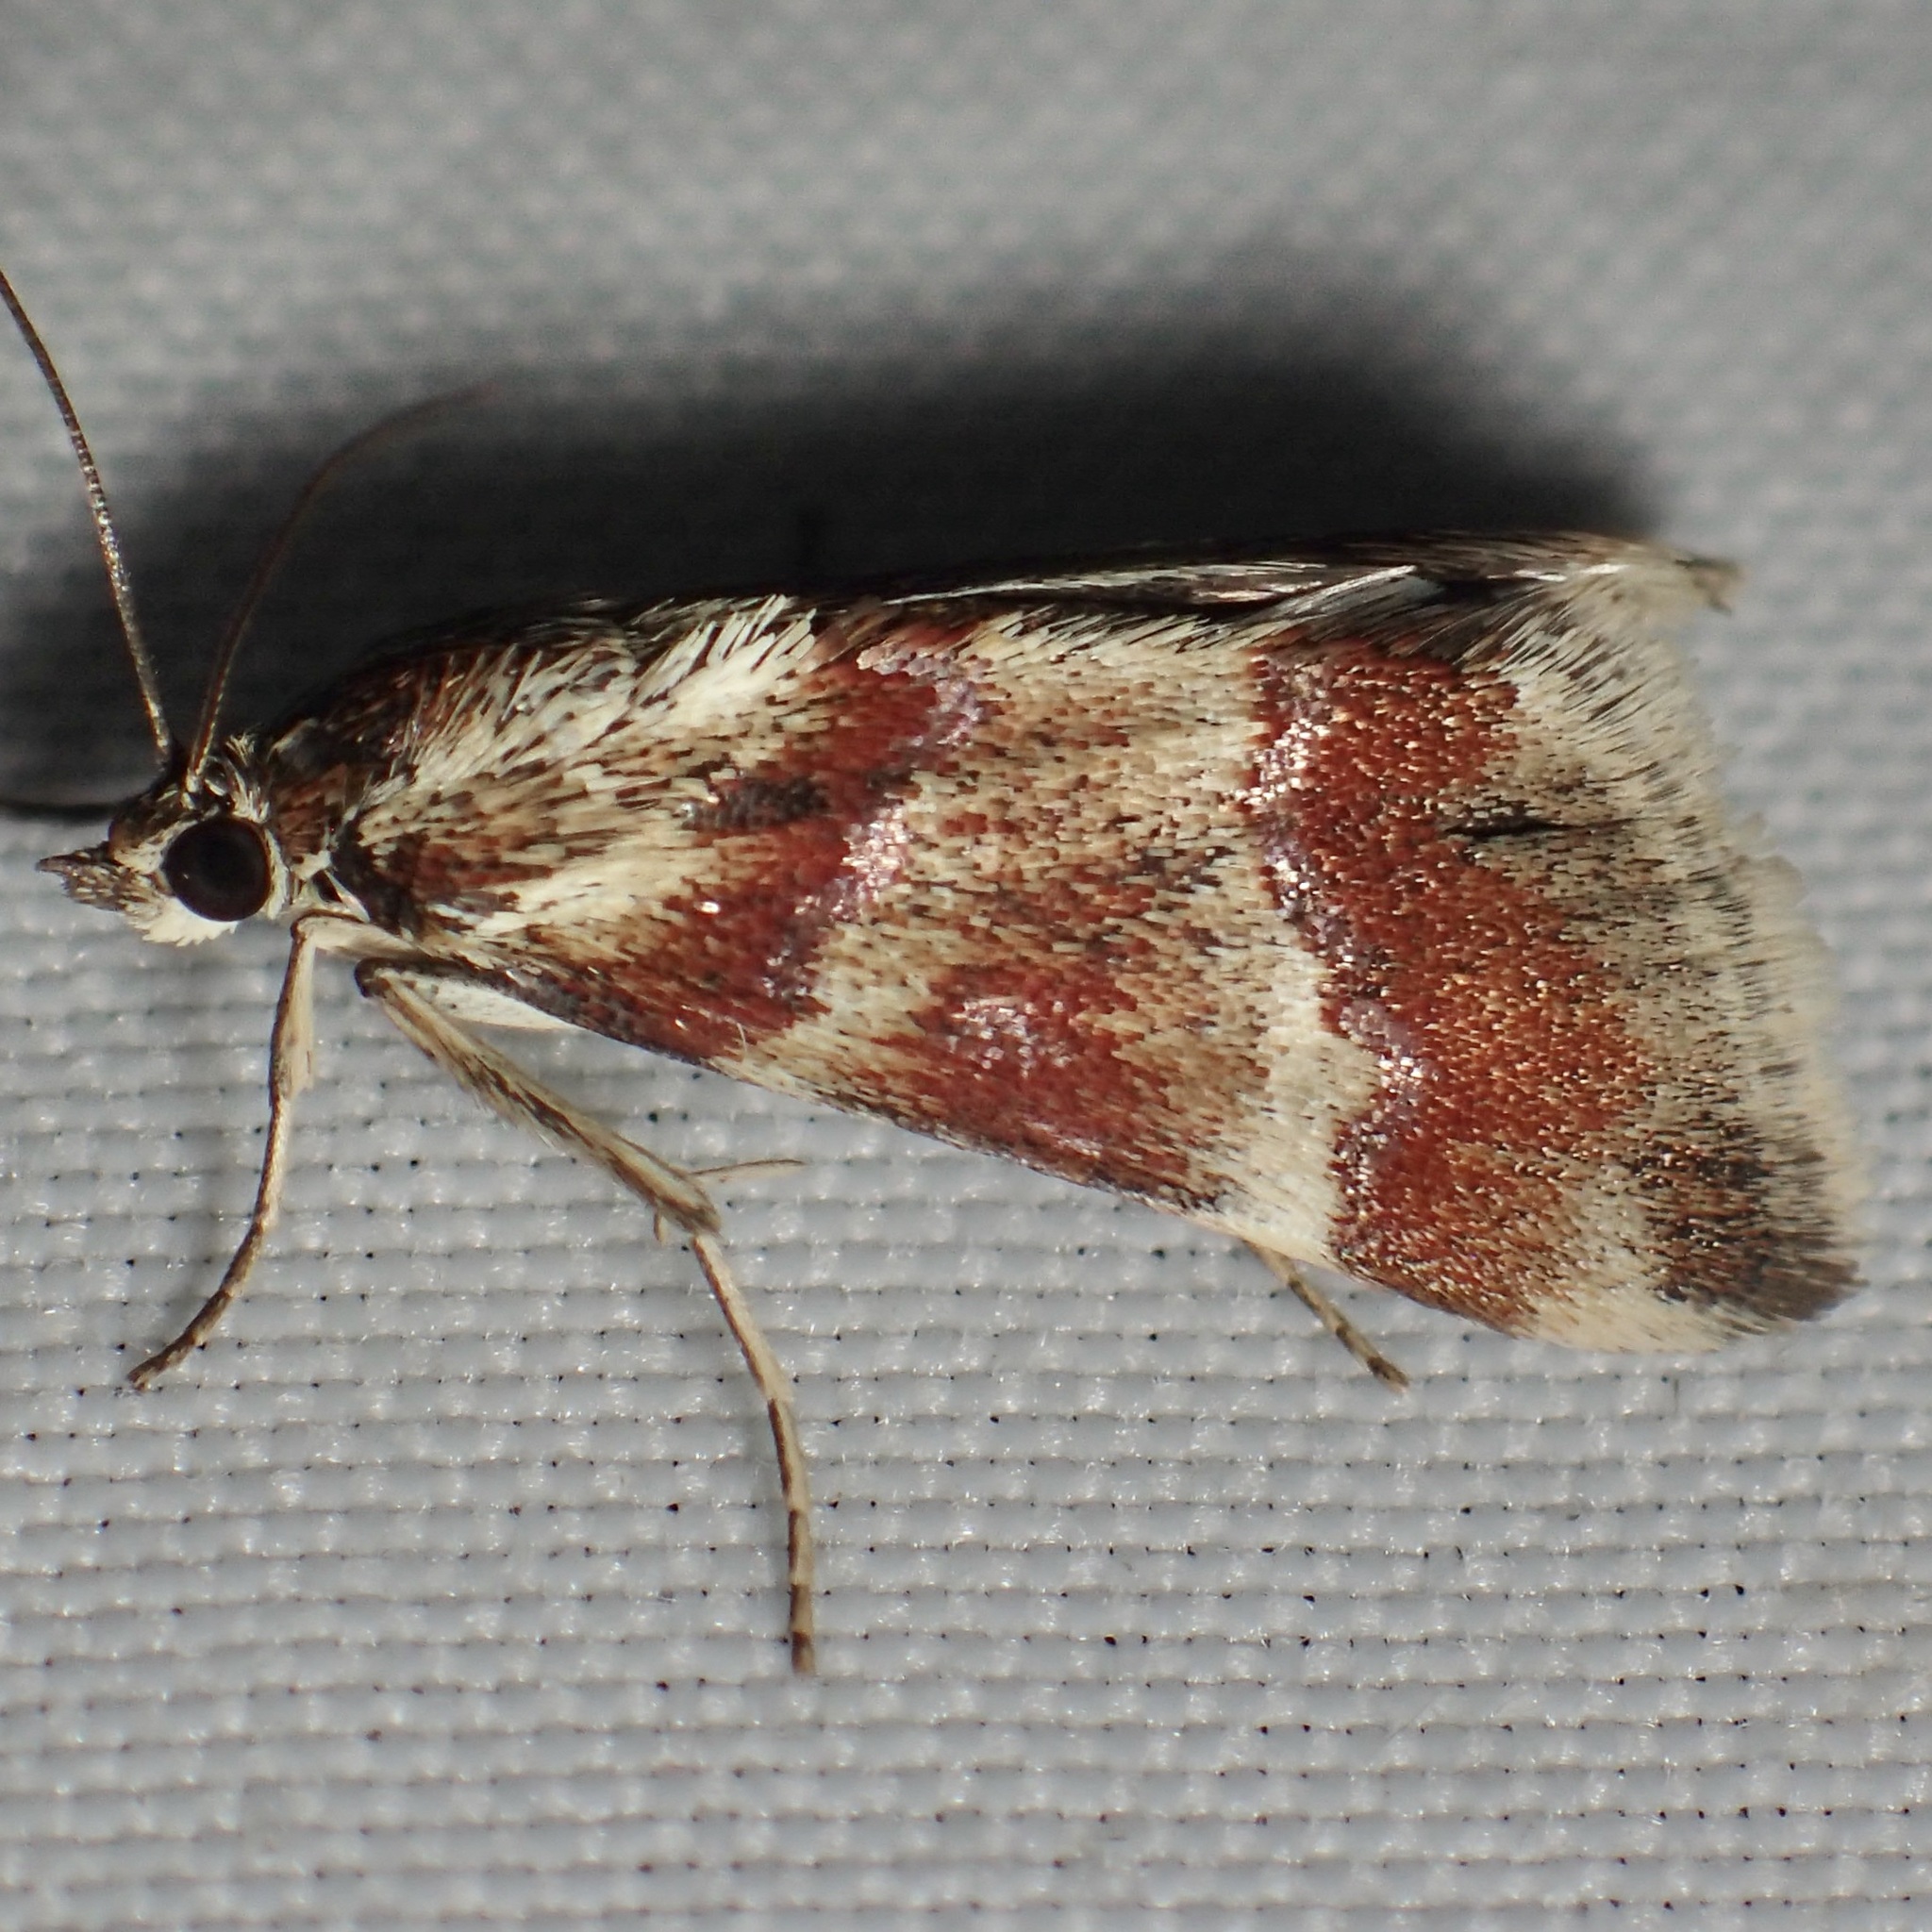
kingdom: Animalia
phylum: Arthropoda
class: Insecta
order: Lepidoptera
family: Crambidae
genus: Noctuelia
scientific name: Noctuelia Mimoschinia rufofascialis
